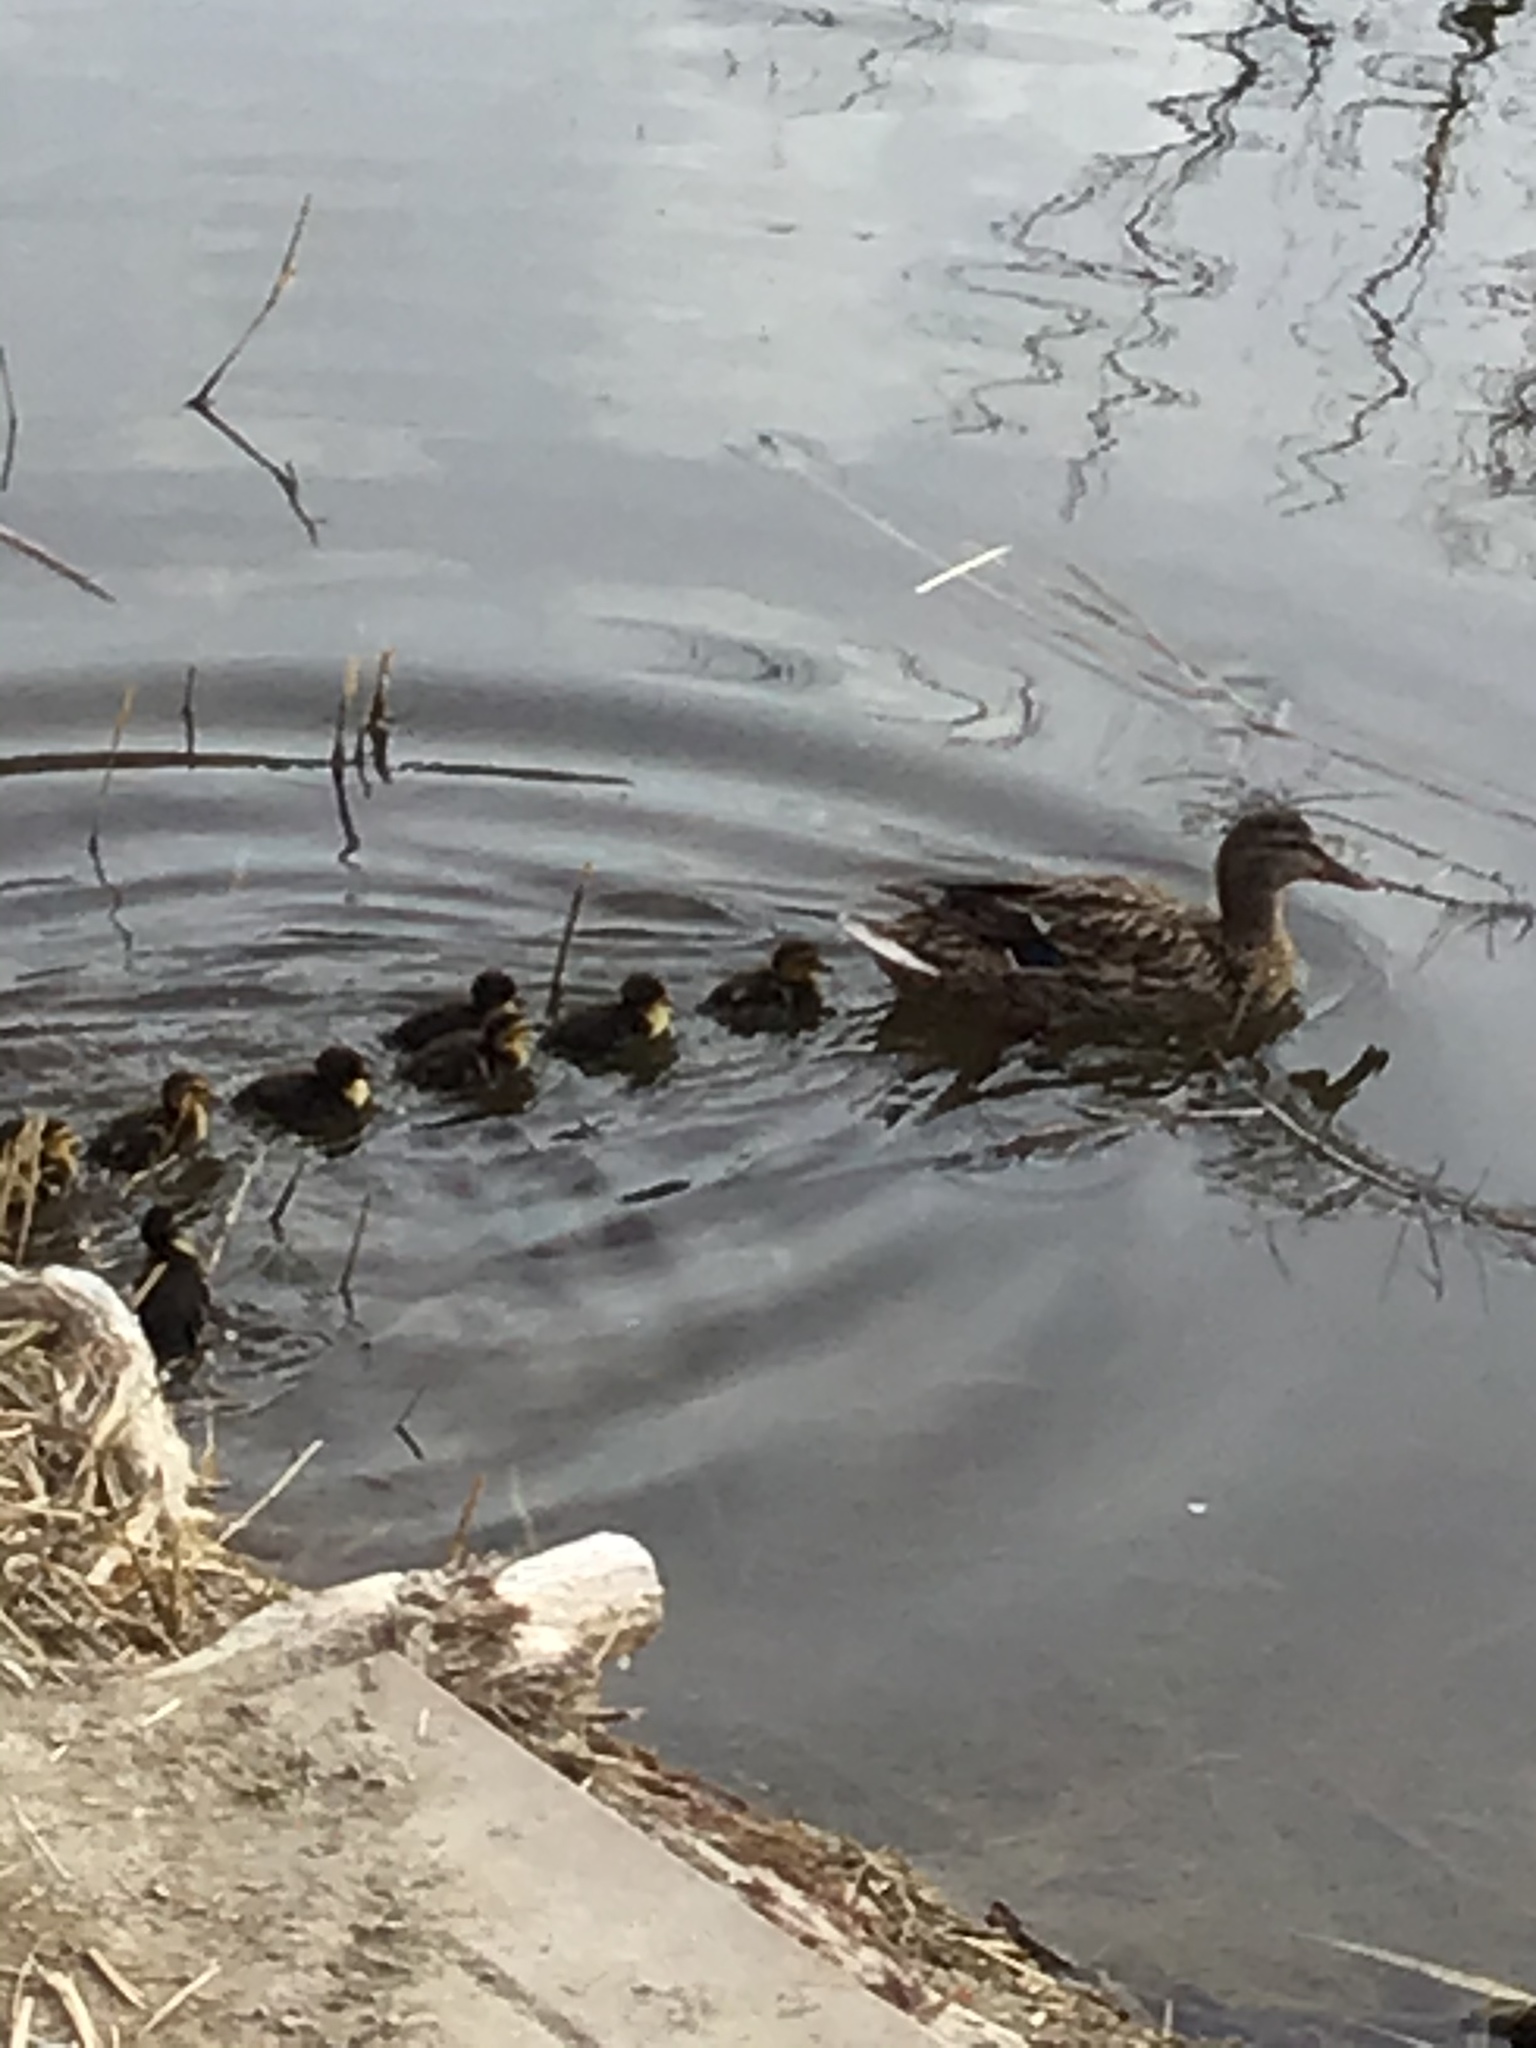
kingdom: Animalia
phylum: Chordata
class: Aves
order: Anseriformes
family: Anatidae
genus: Anas
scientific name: Anas platyrhynchos
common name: Mallard
